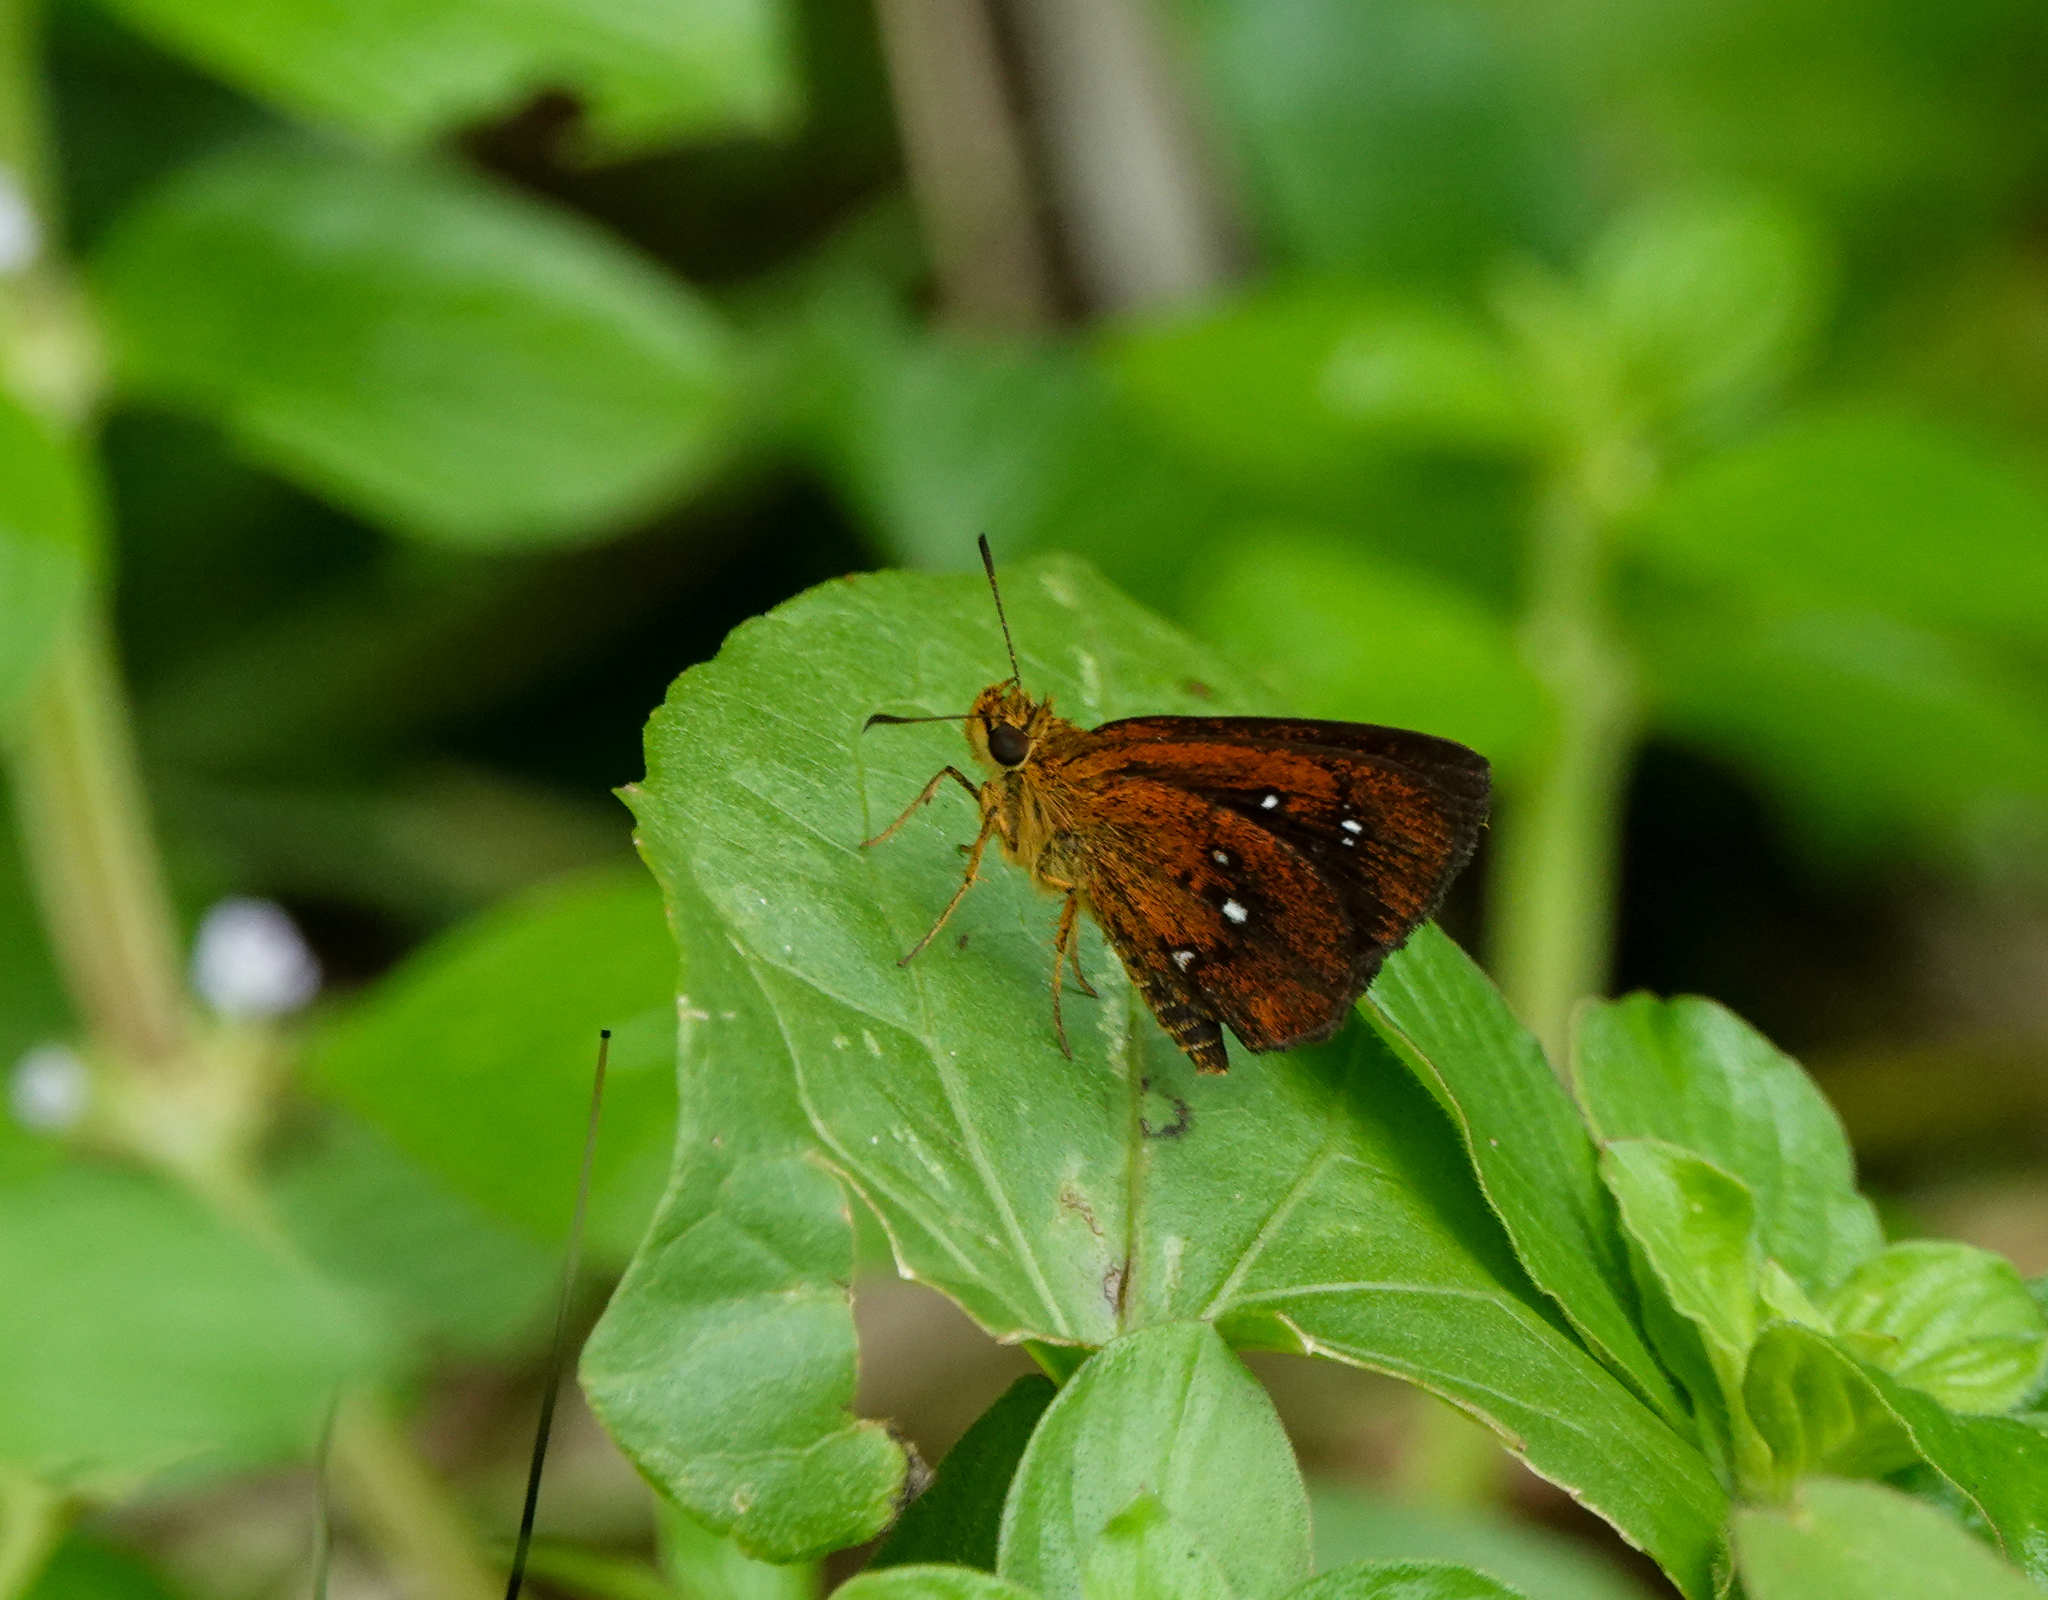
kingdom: Animalia
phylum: Arthropoda
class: Insecta
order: Lepidoptera
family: Hesperiidae
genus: Iambrix
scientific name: Iambrix salsala
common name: Chestnut bob
